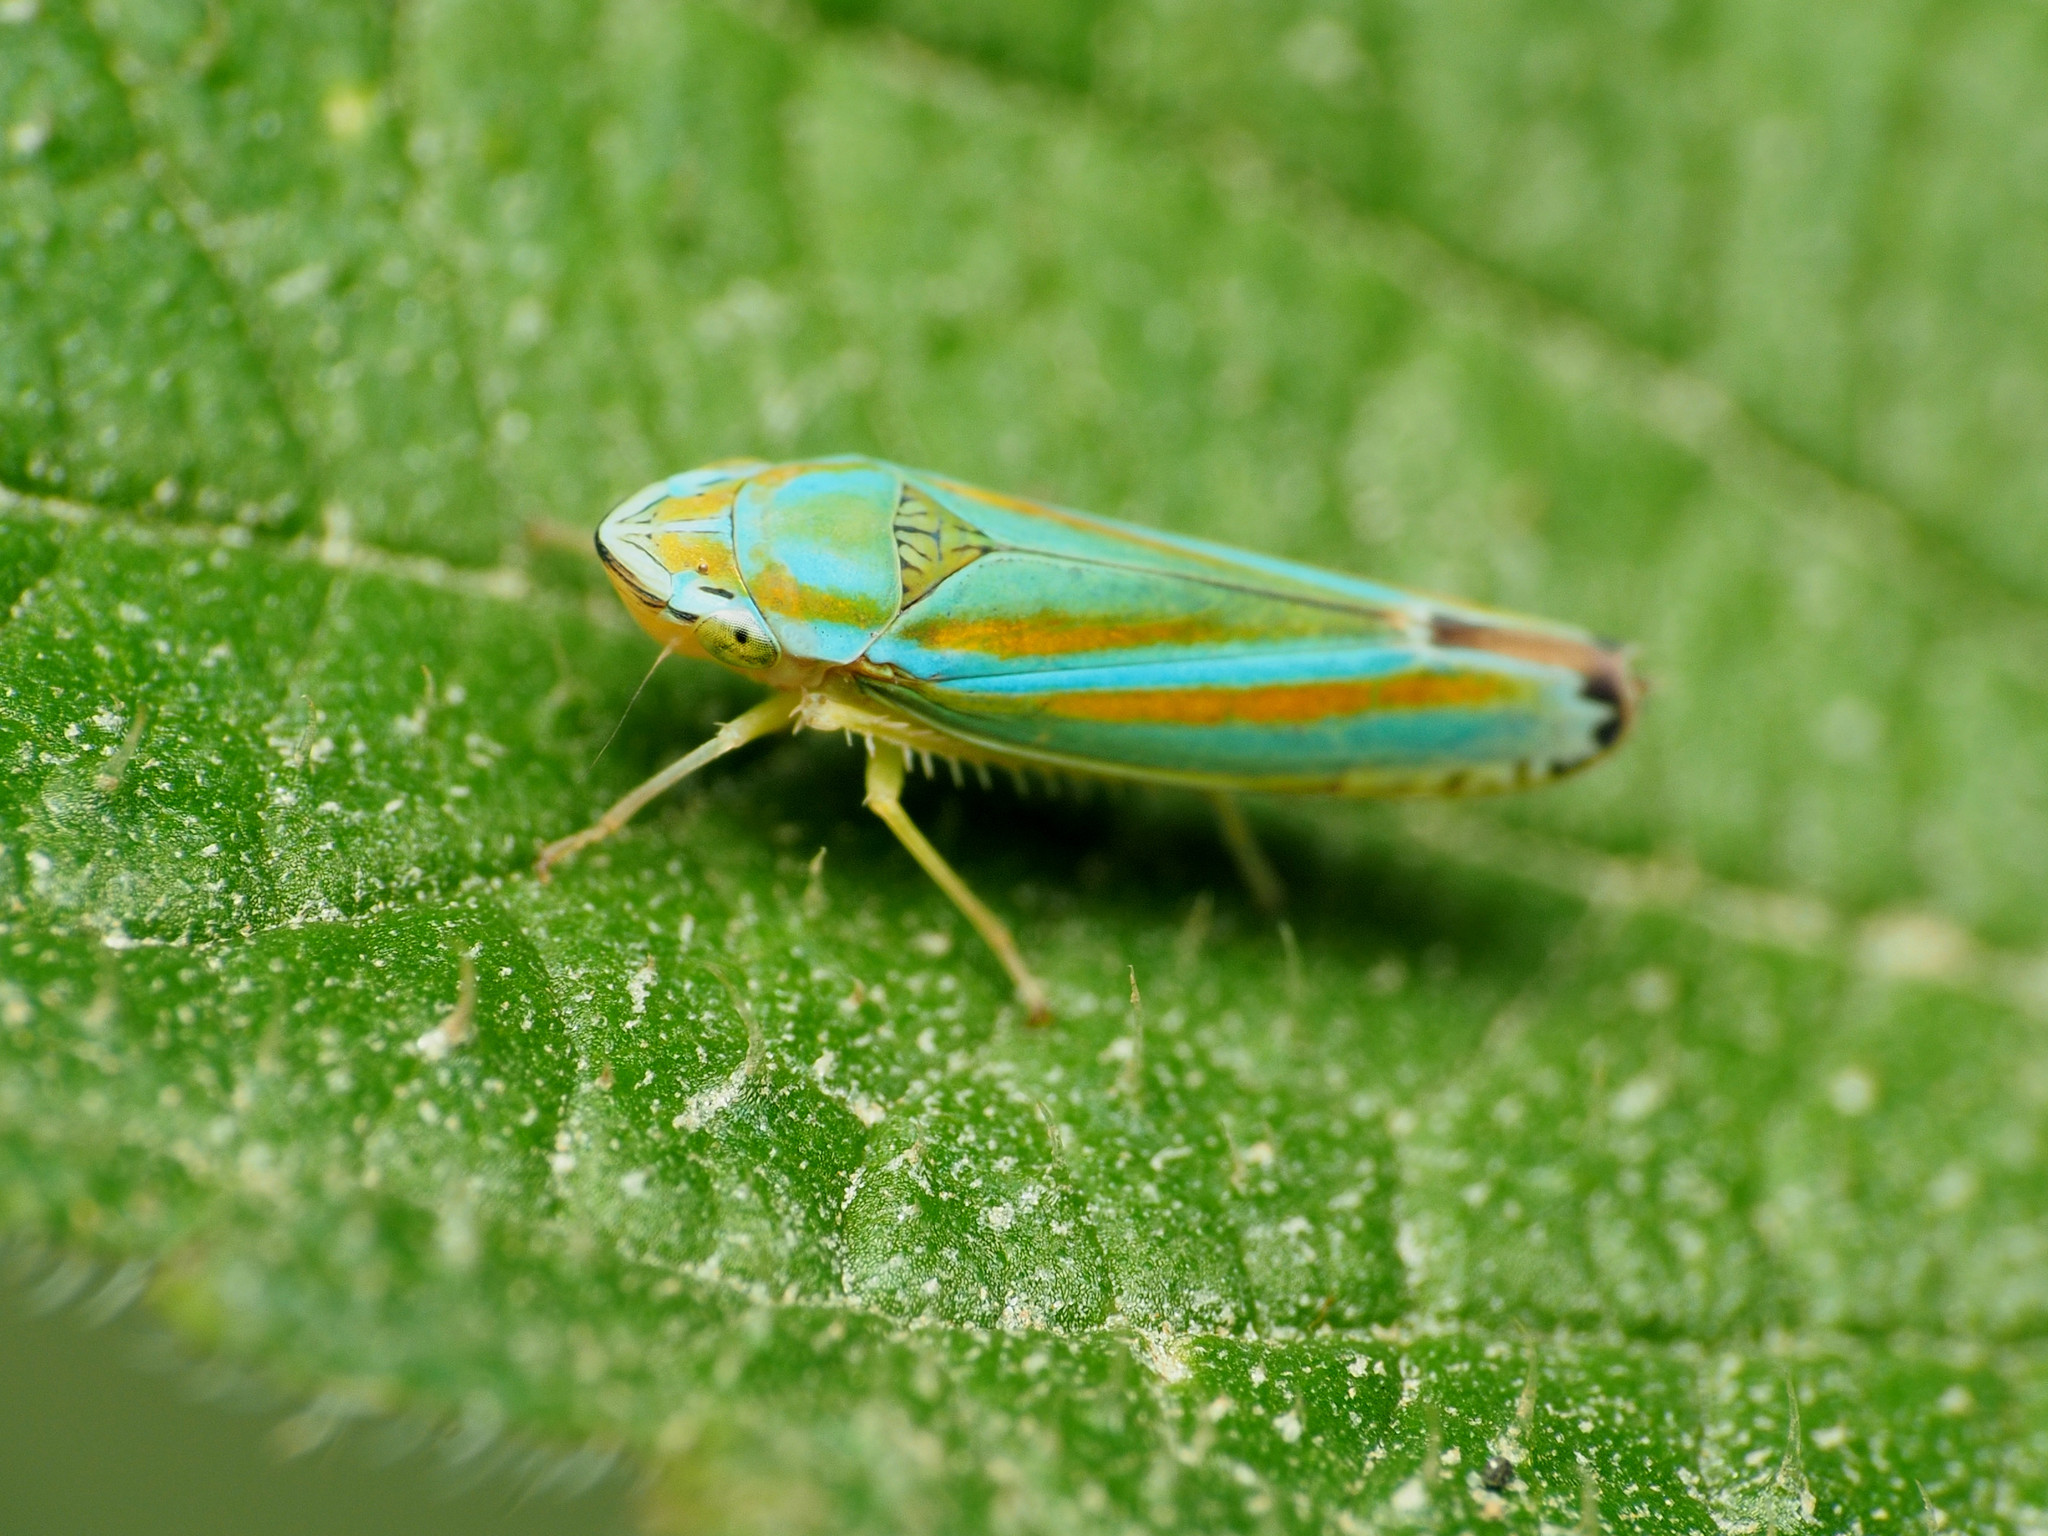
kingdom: Animalia
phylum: Arthropoda
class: Insecta
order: Hemiptera
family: Cicadellidae
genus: Graphocephala
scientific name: Graphocephala versuta
